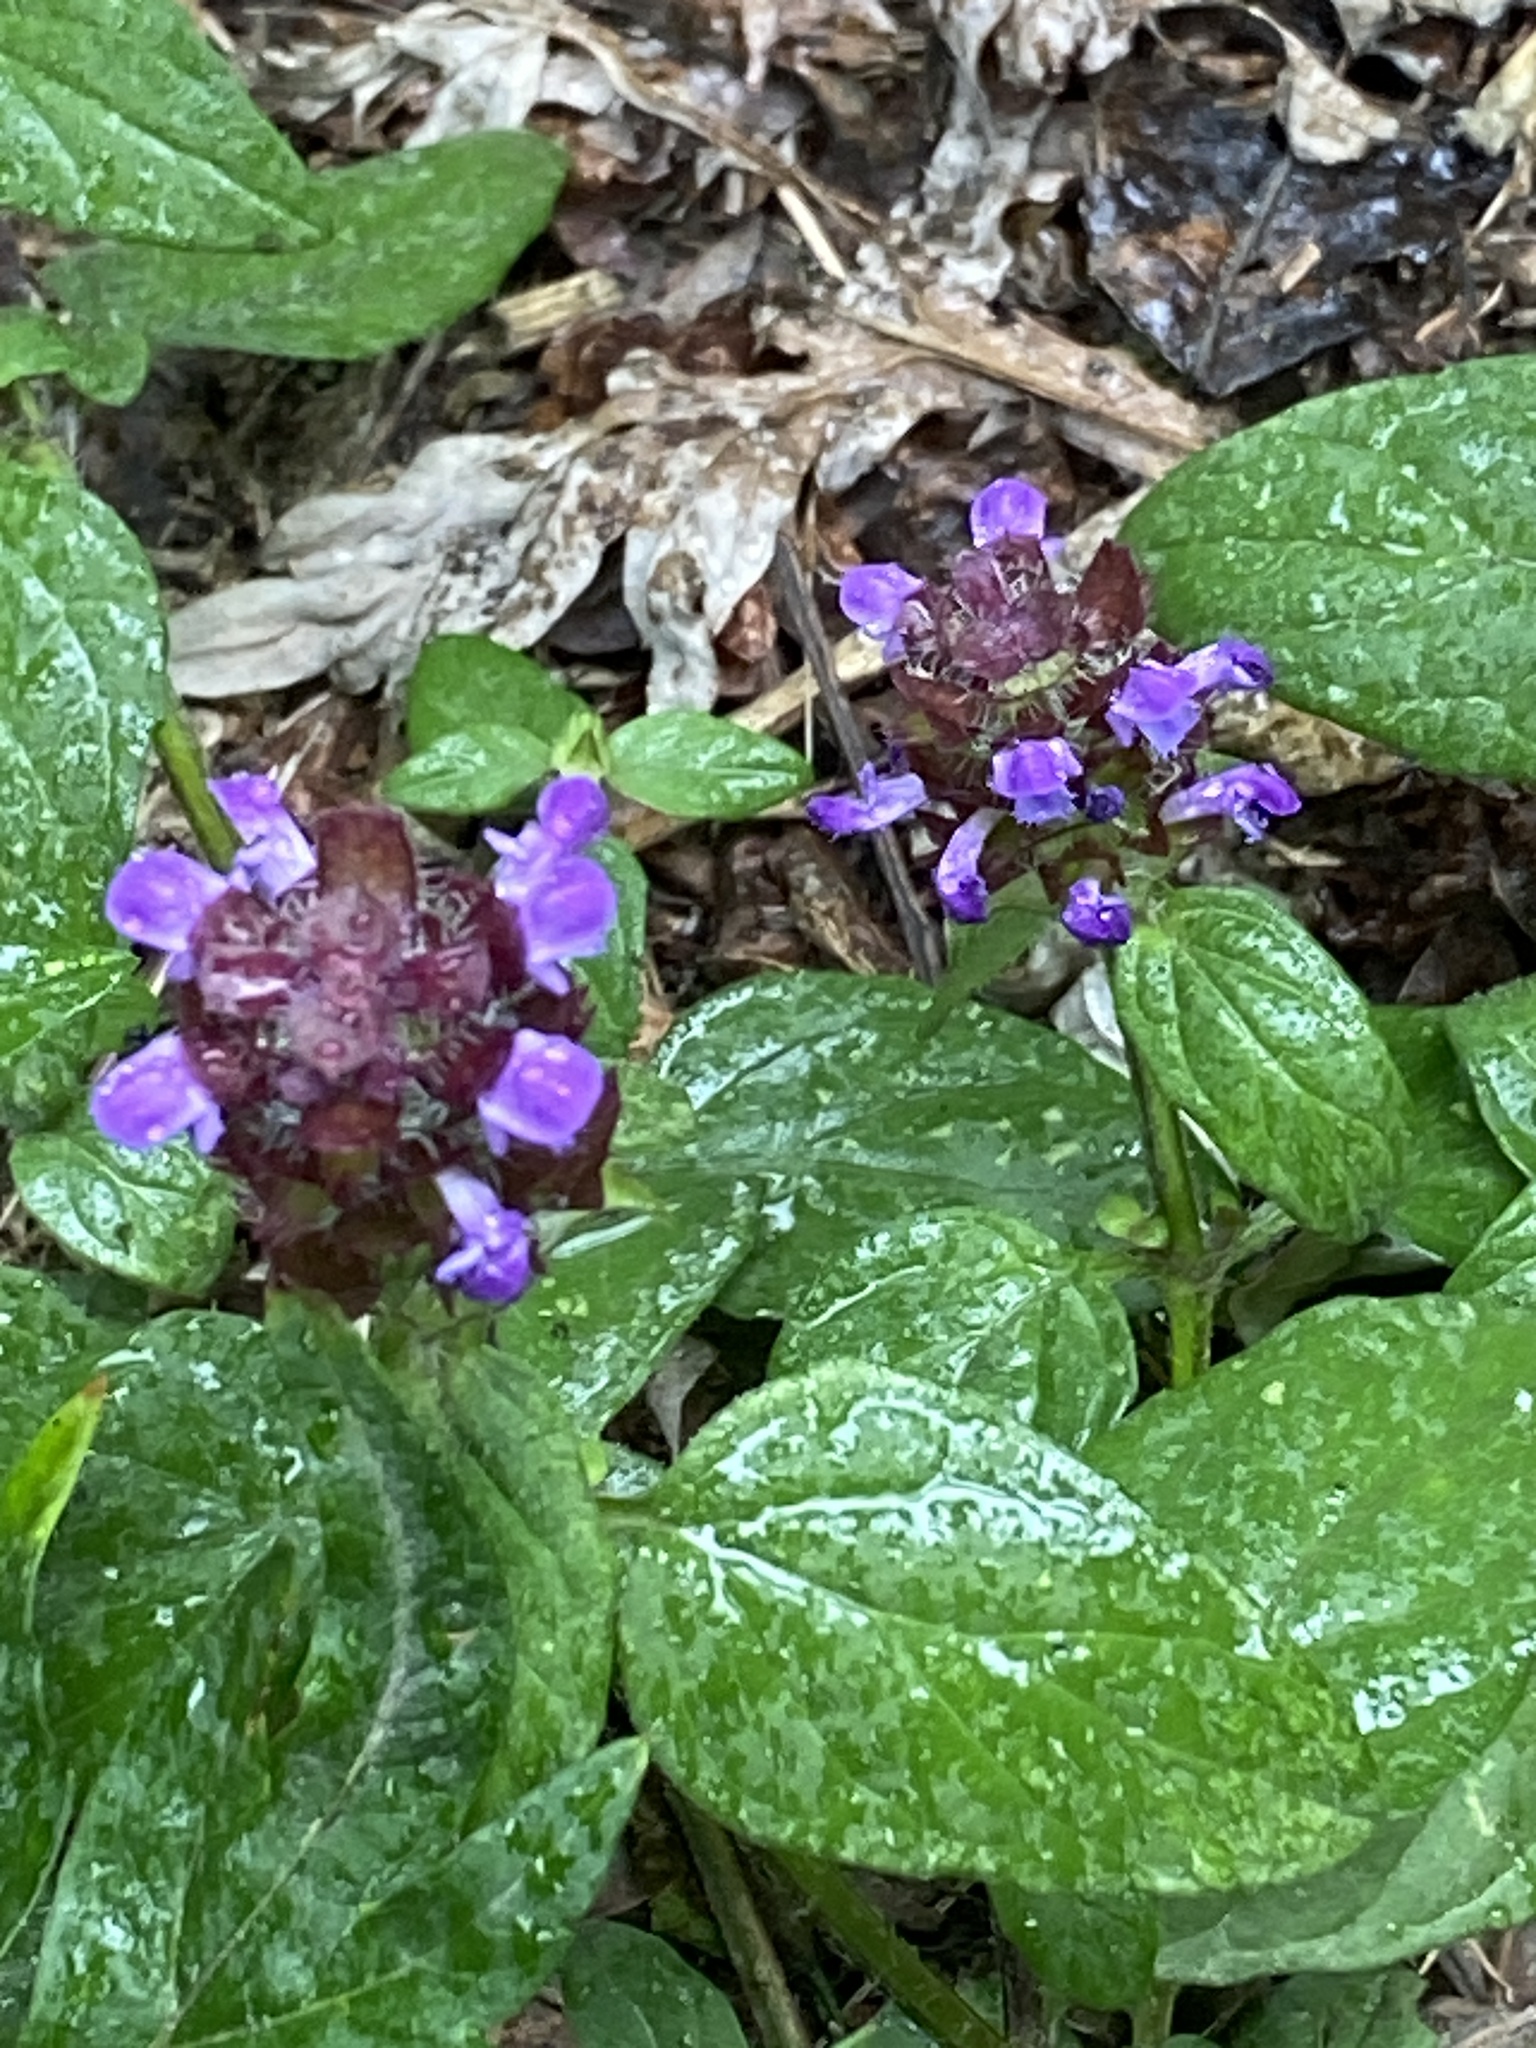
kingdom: Plantae
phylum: Tracheophyta
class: Magnoliopsida
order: Lamiales
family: Lamiaceae
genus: Prunella
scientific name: Prunella vulgaris
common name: Heal-all
